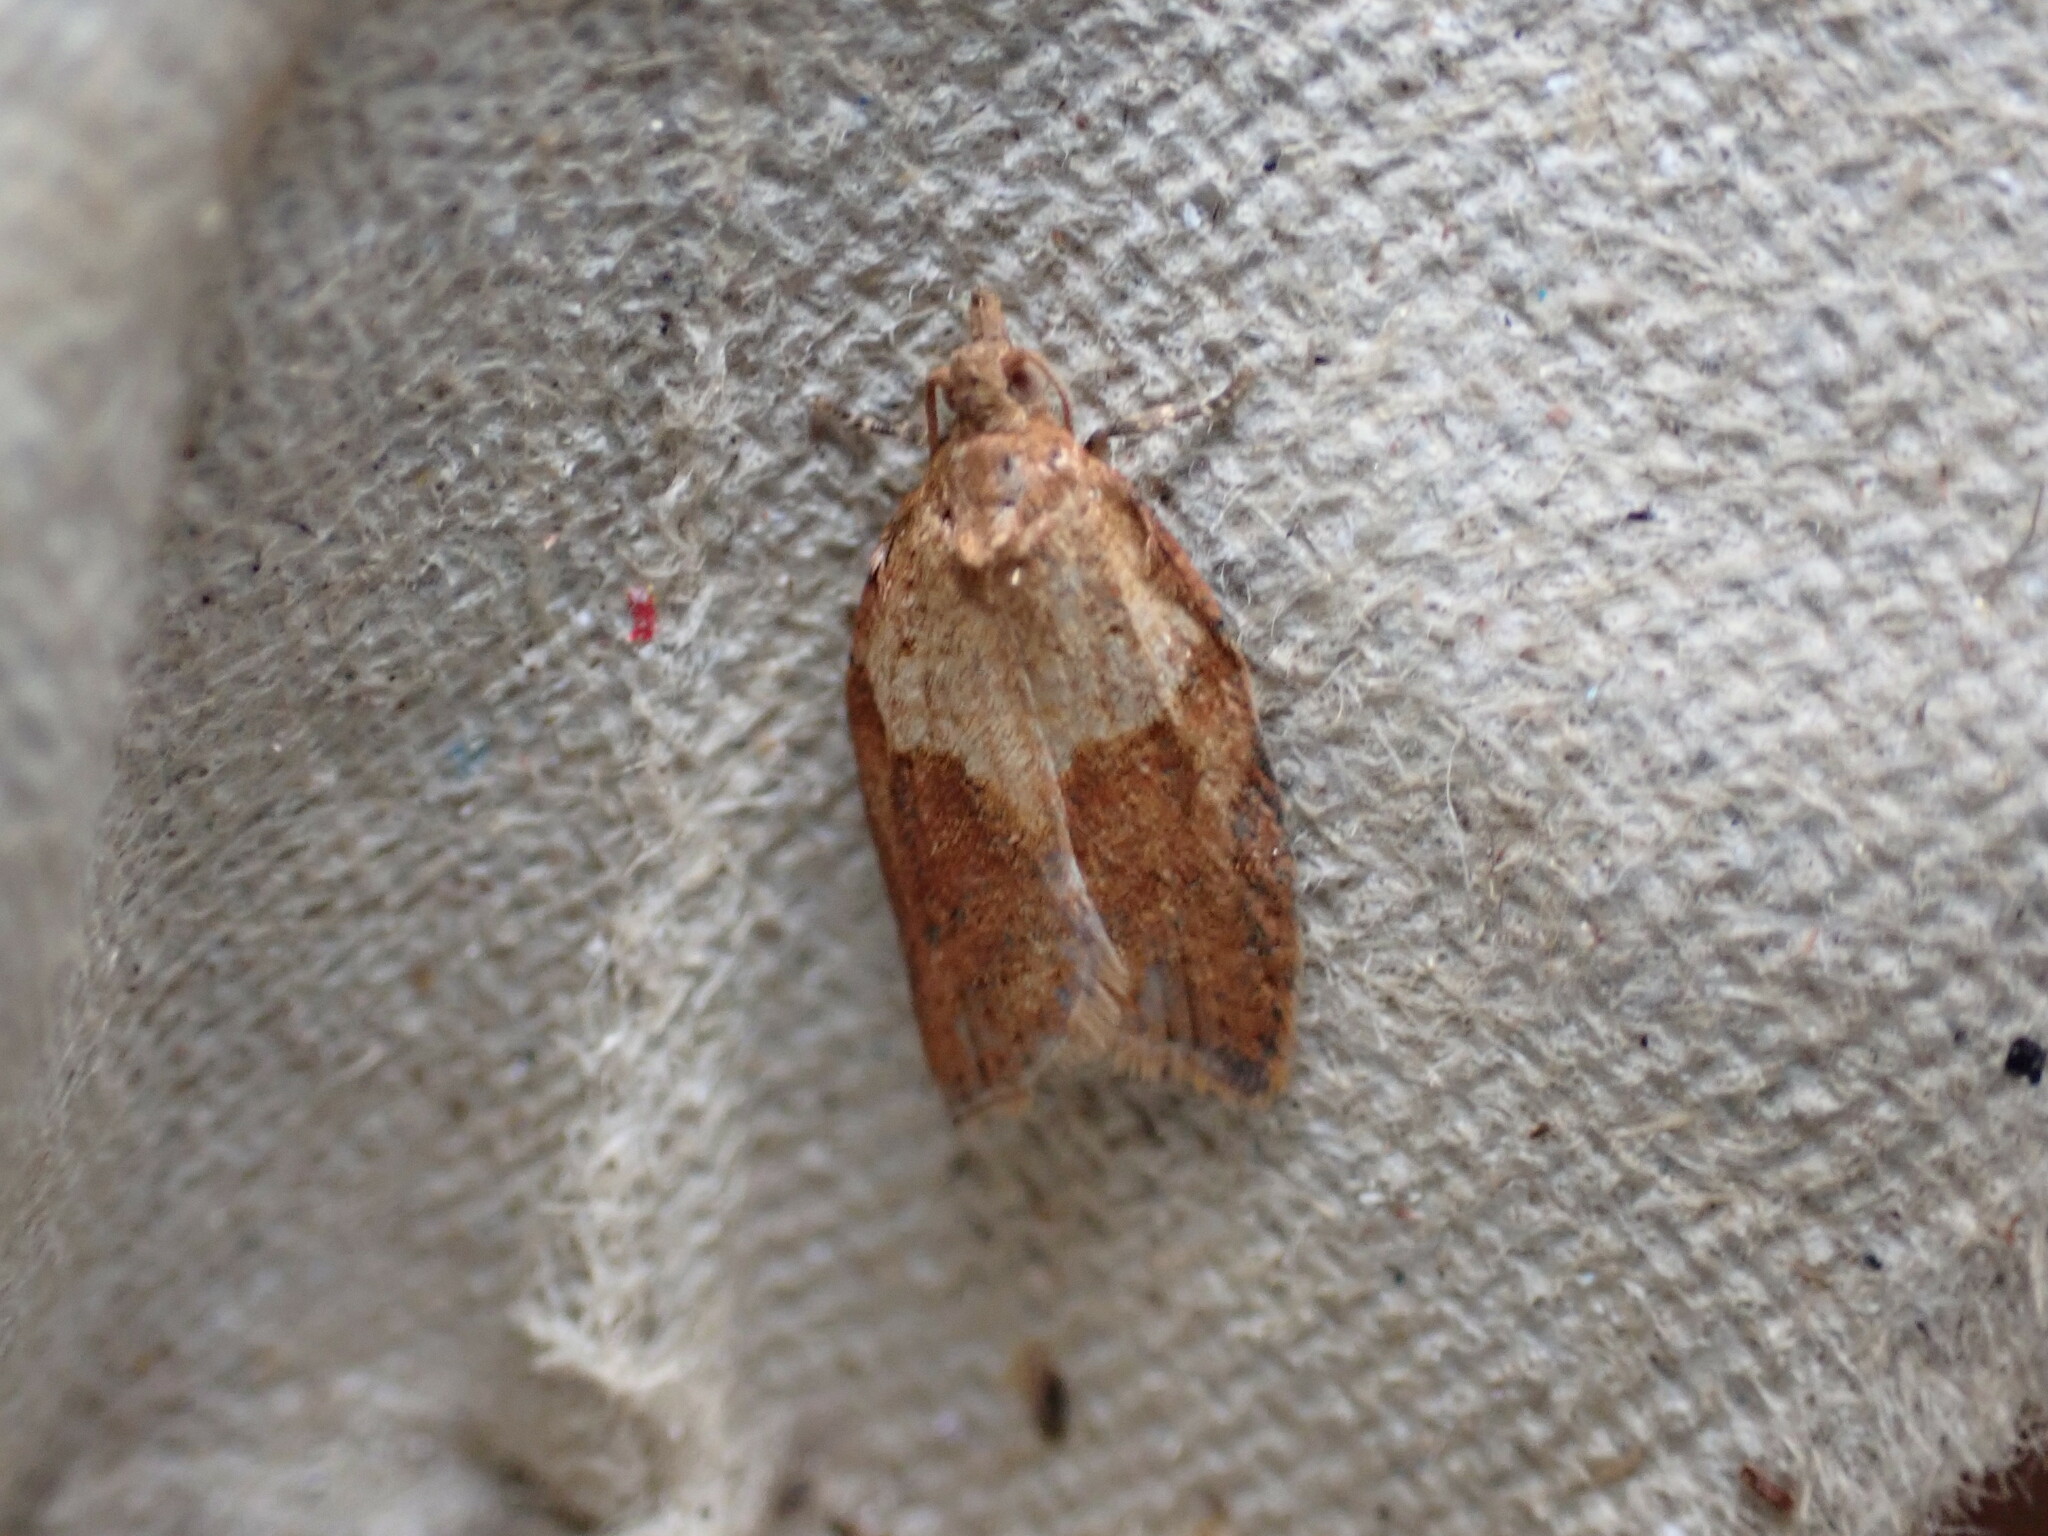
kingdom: Animalia
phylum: Arthropoda
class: Insecta
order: Lepidoptera
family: Tortricidae
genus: Epiphyas
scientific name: Epiphyas postvittana
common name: Light brown apple moth
